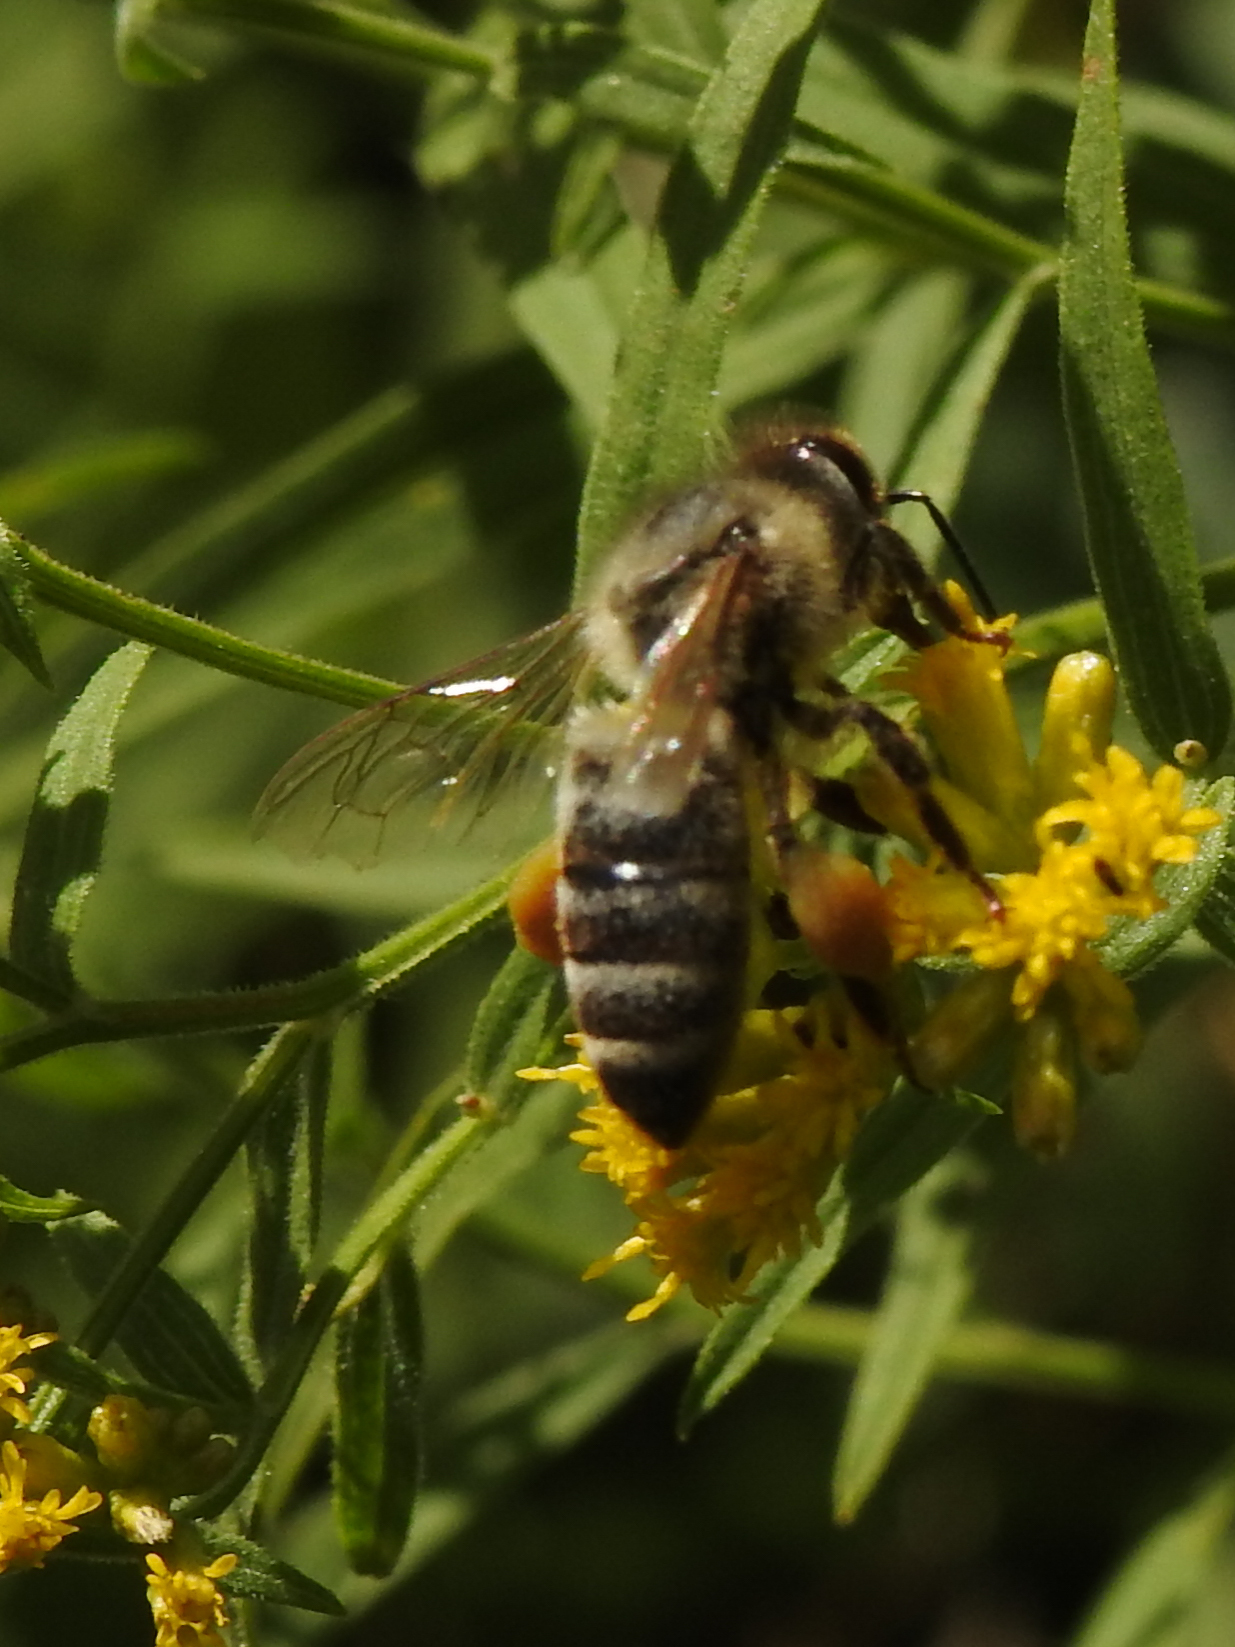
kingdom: Animalia
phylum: Arthropoda
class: Insecta
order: Hymenoptera
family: Apidae
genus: Apis
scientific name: Apis mellifera
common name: Honey bee
